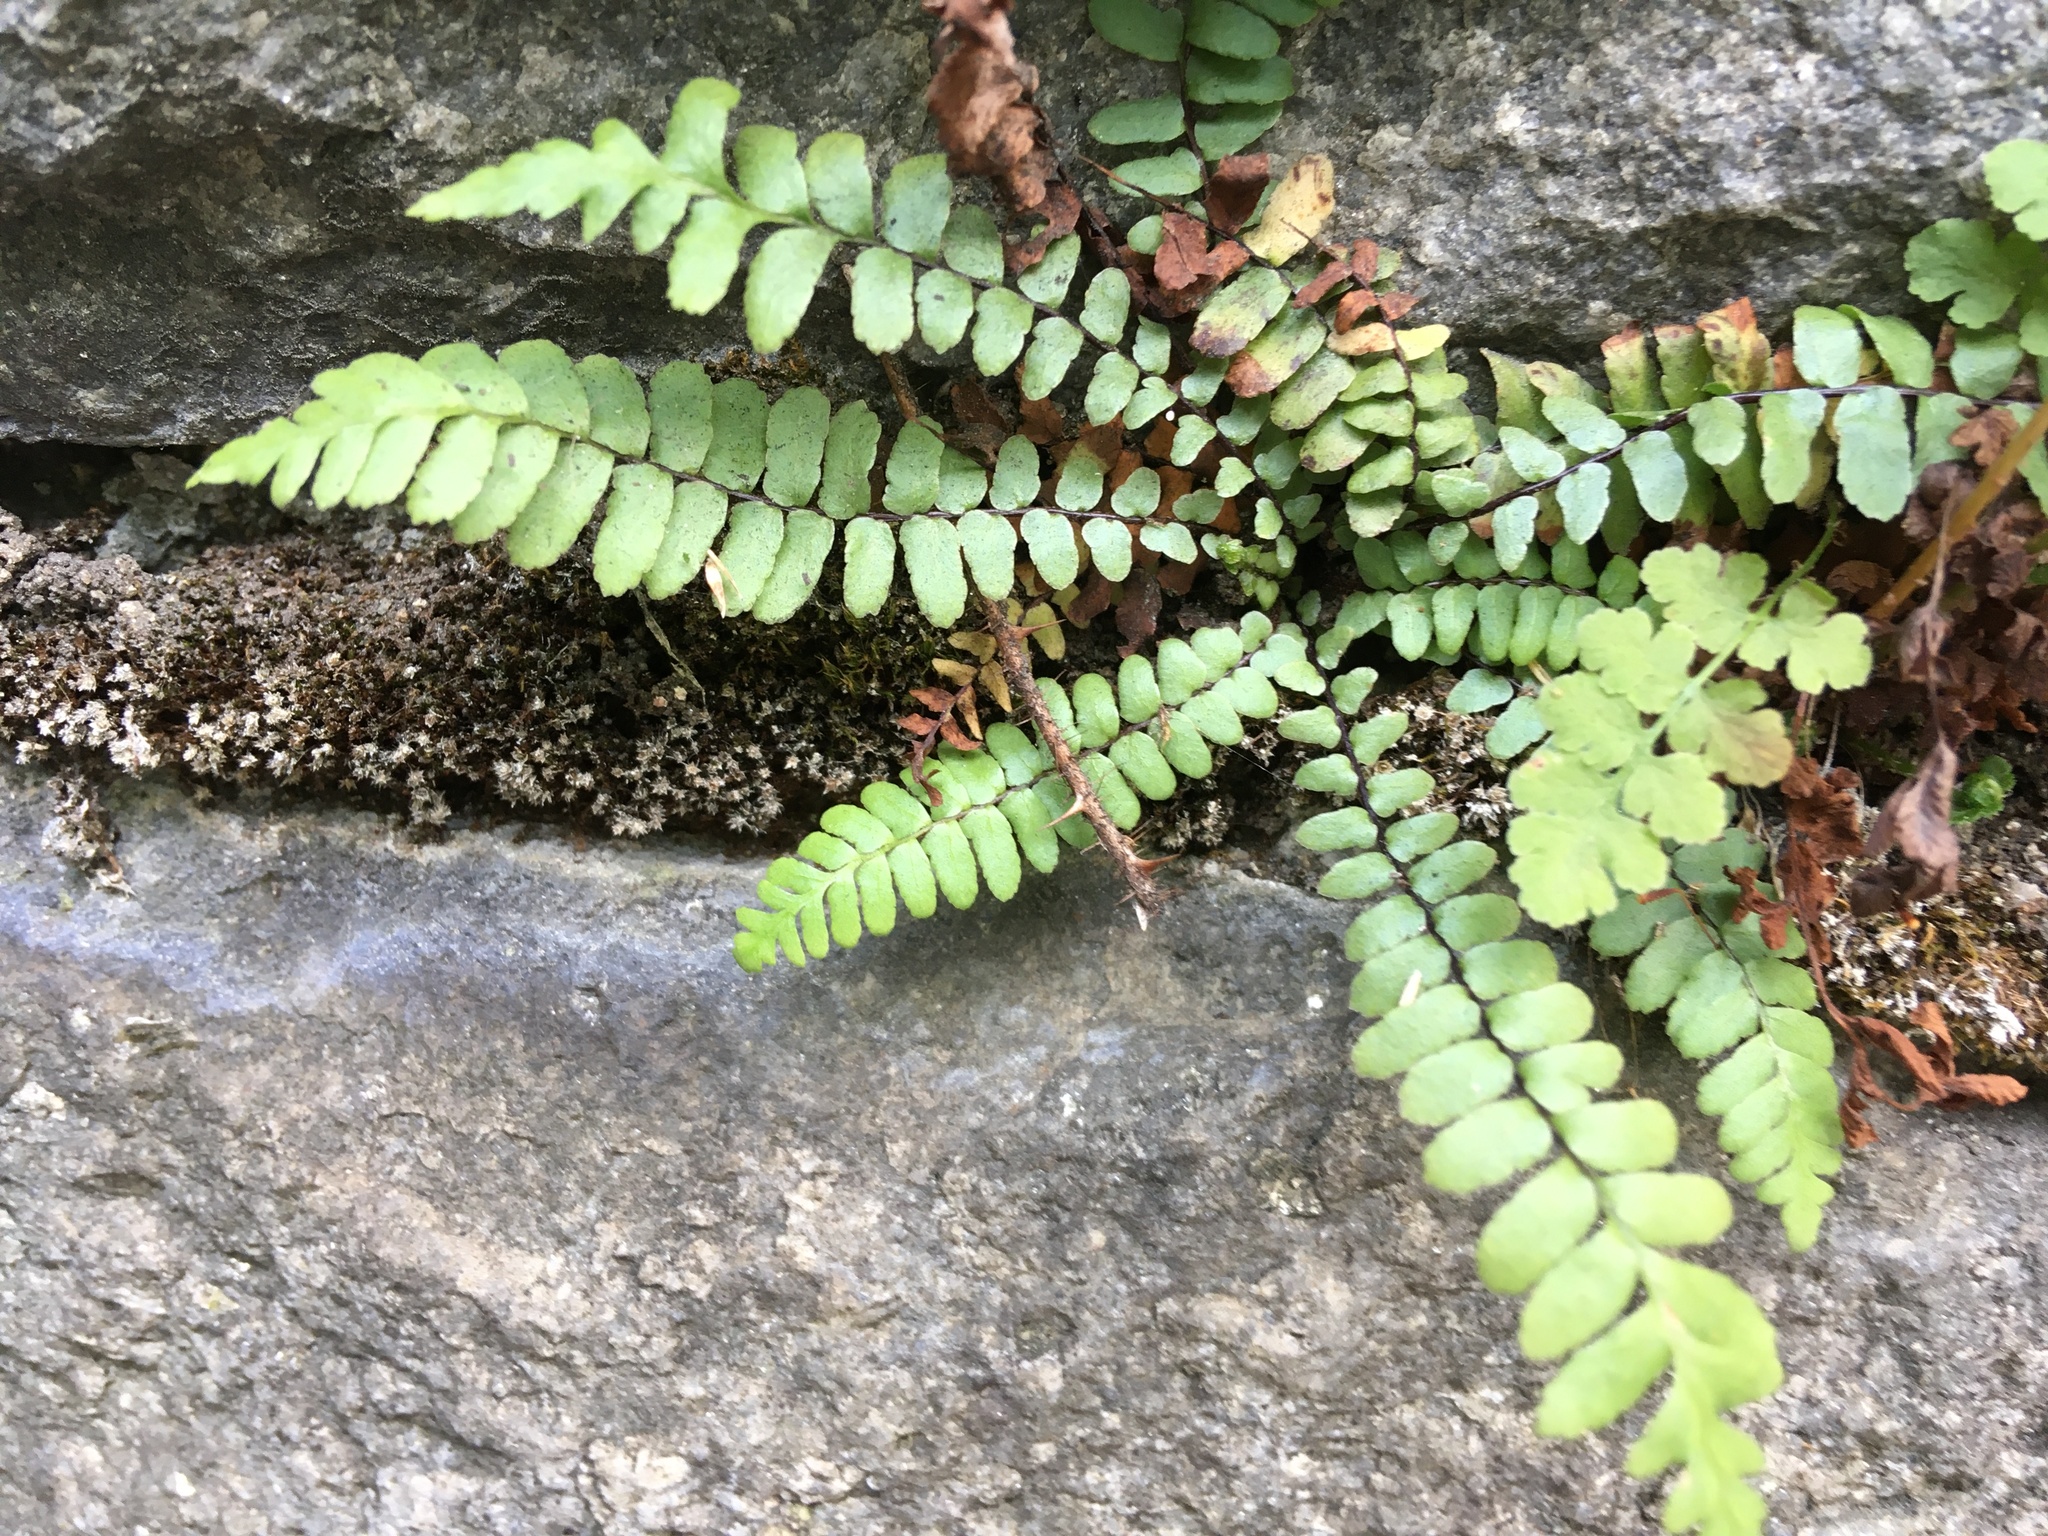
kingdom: Plantae
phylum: Tracheophyta
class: Polypodiopsida
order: Polypodiales
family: Aspleniaceae
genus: Asplenium
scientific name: Asplenium platyneuron
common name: Ebony spleenwort
